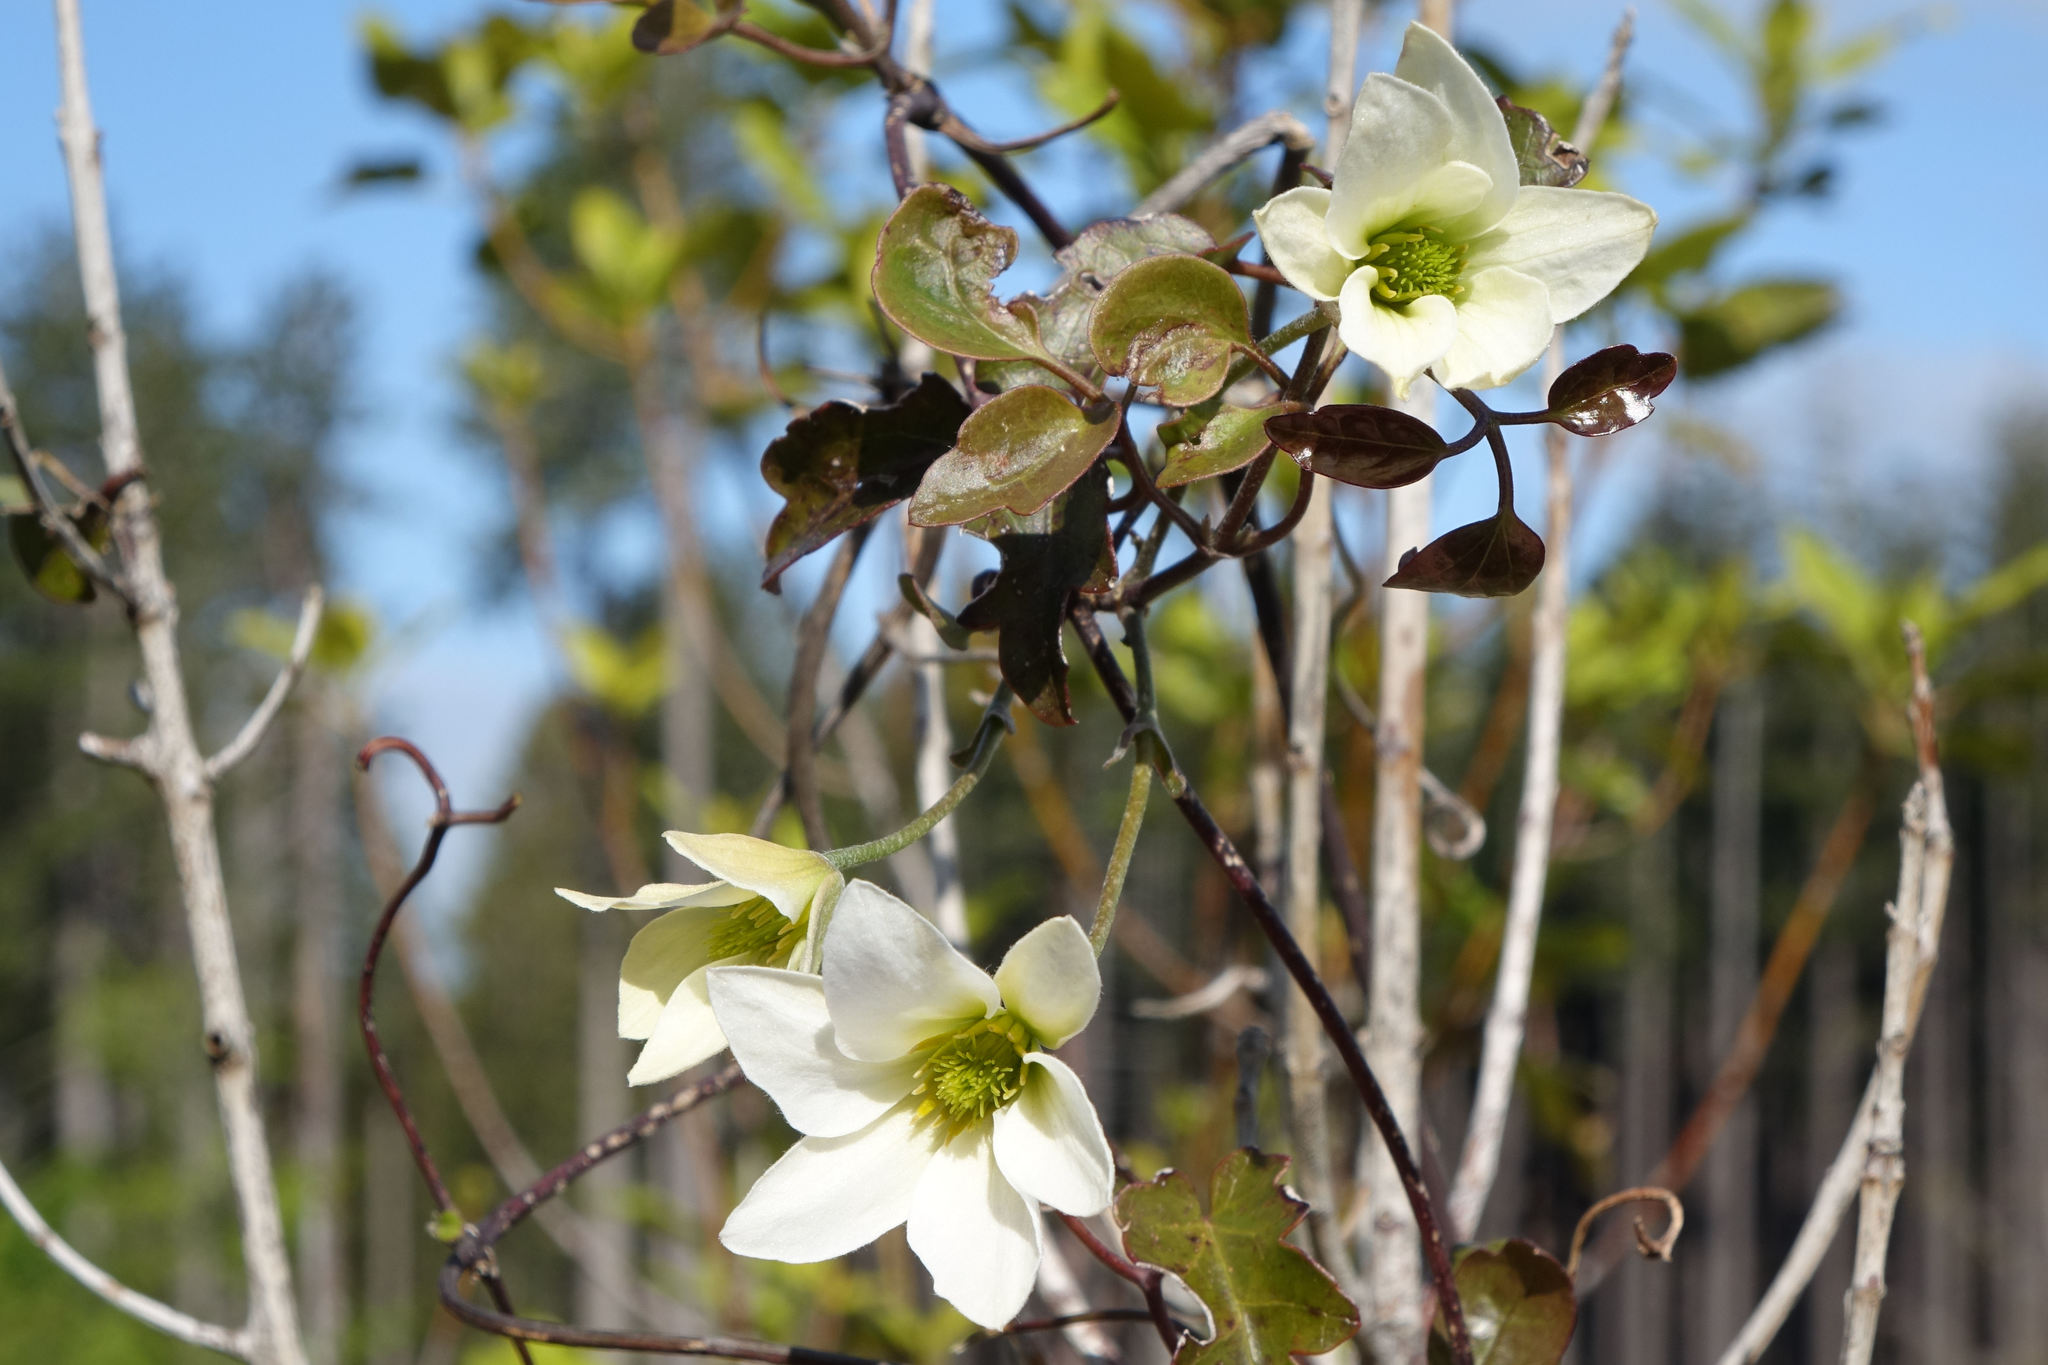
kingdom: Plantae
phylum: Tracheophyta
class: Magnoliopsida
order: Ranunculales
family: Ranunculaceae
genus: Clematis
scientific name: Clematis paniculata
